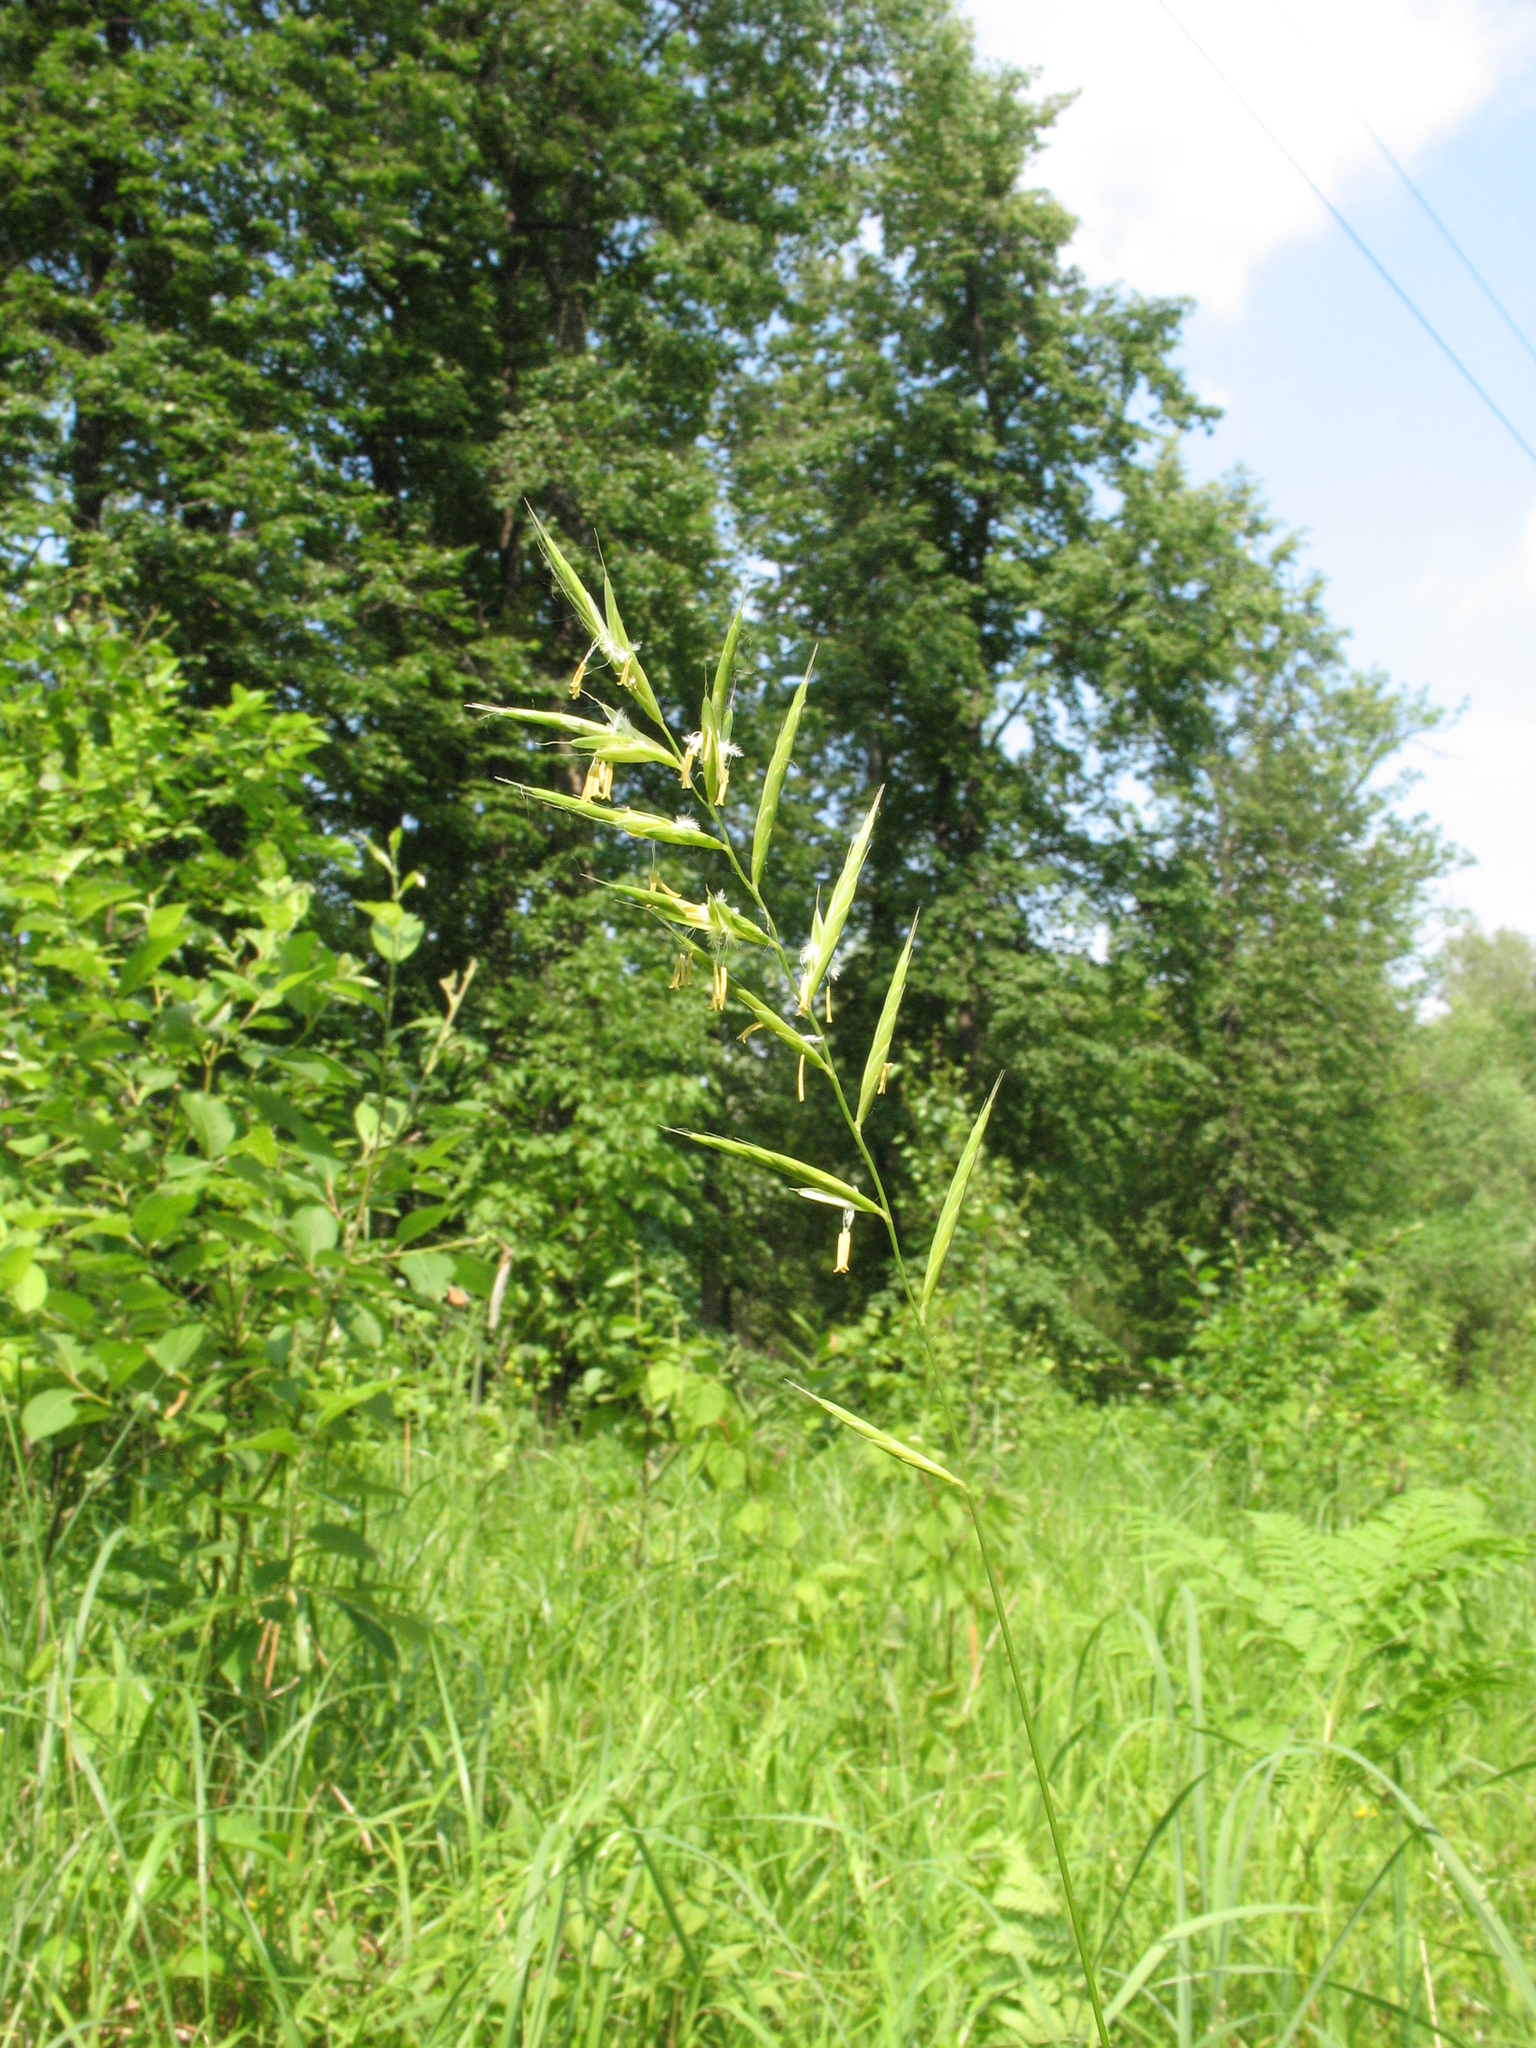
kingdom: Plantae
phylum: Tracheophyta
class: Liliopsida
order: Poales
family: Poaceae
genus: Brachypodium
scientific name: Brachypodium pinnatum
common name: Tor grass
